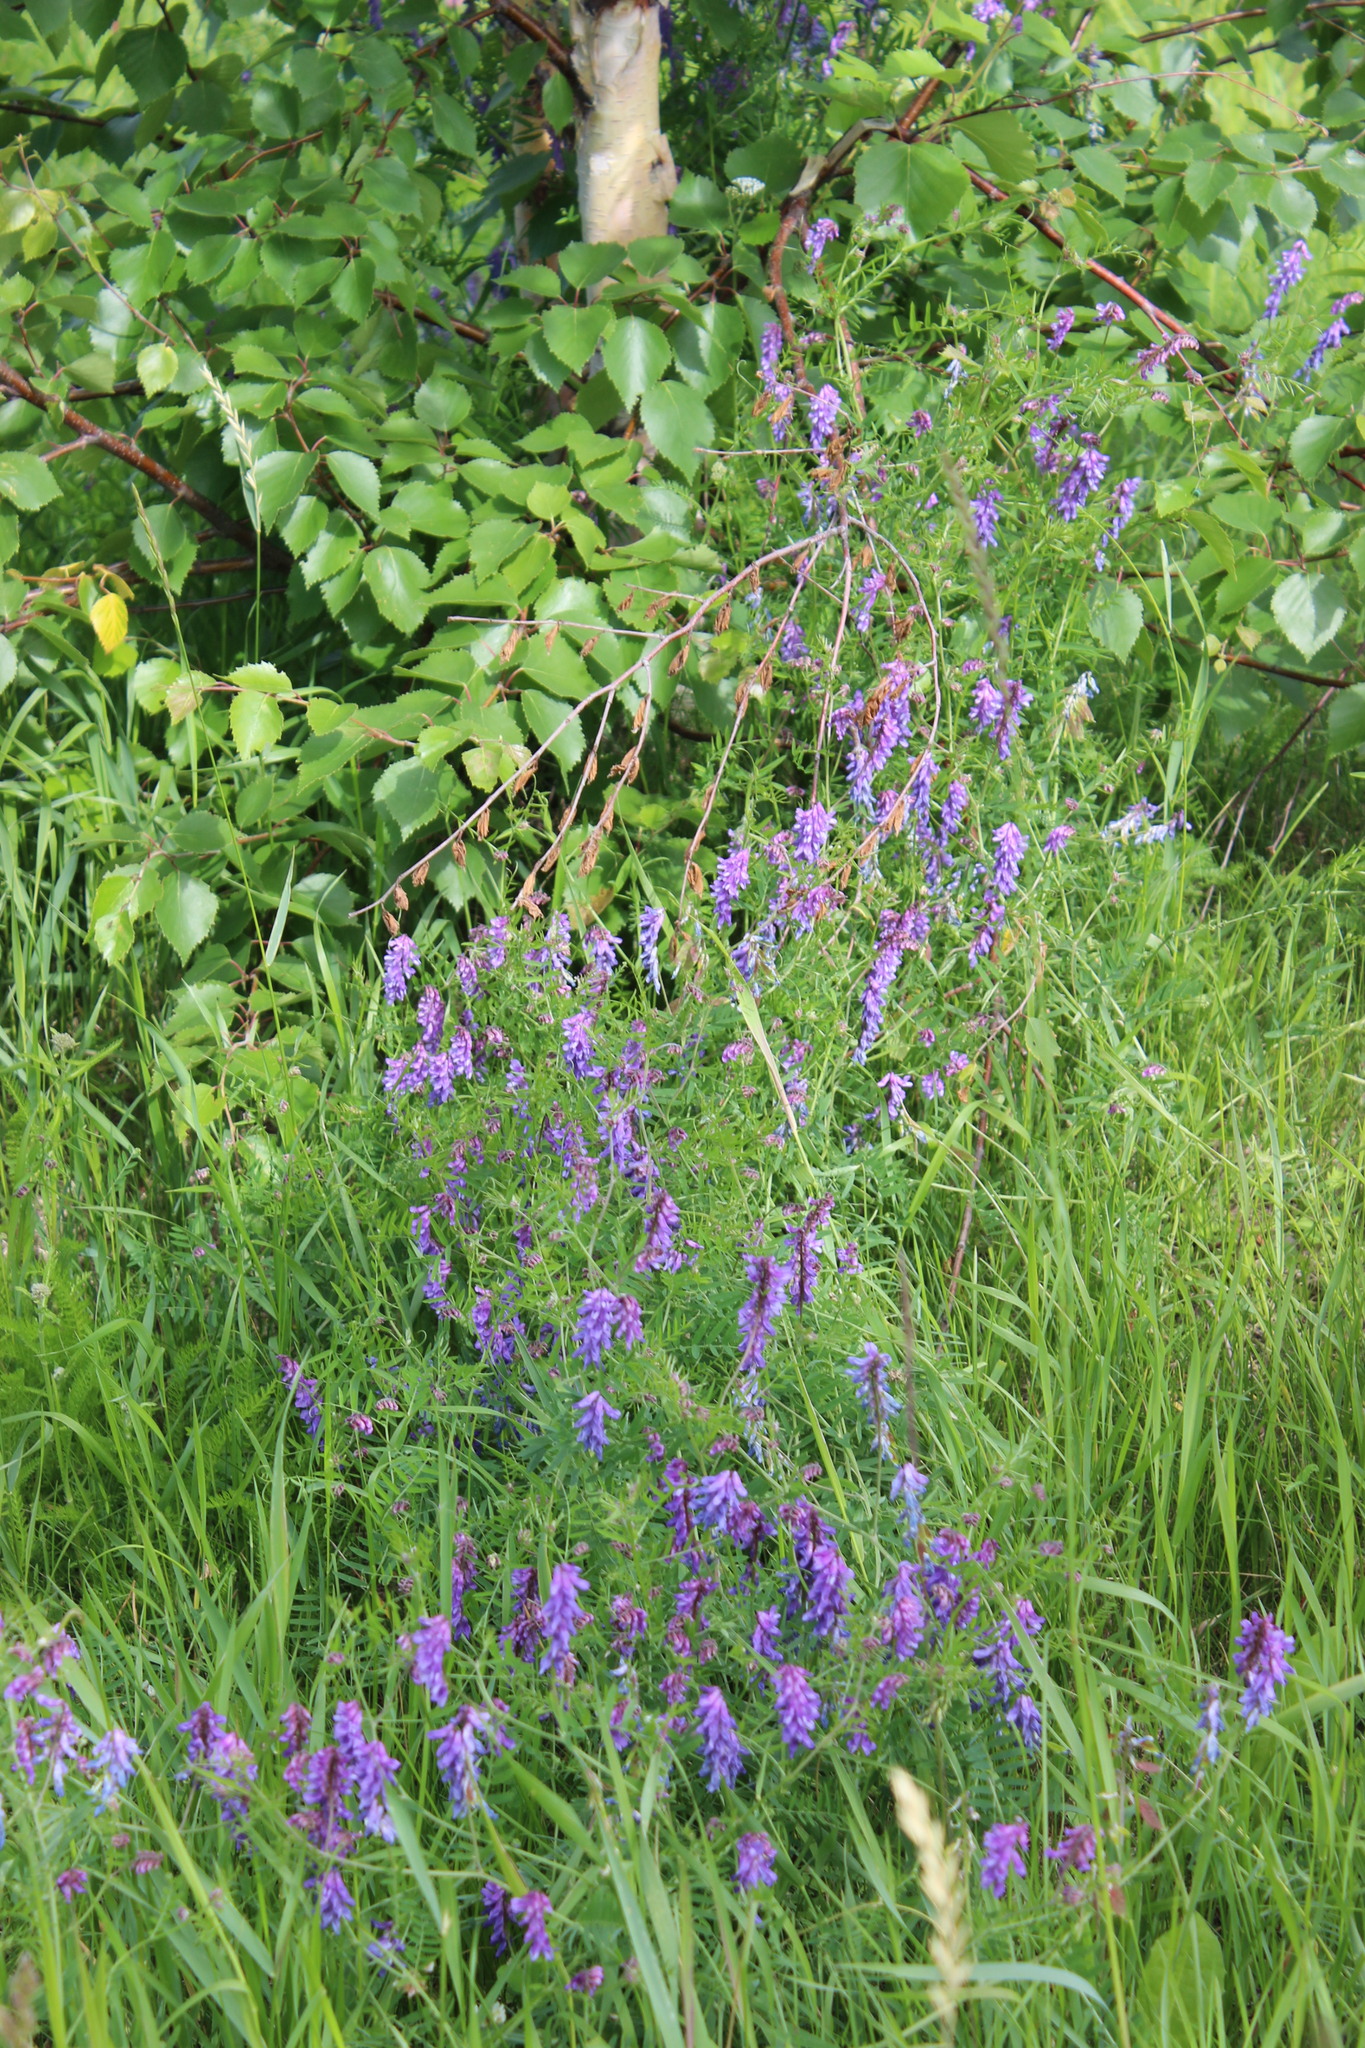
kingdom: Plantae
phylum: Tracheophyta
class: Magnoliopsida
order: Fabales
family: Fabaceae
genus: Vicia
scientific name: Vicia cracca
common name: Bird vetch
